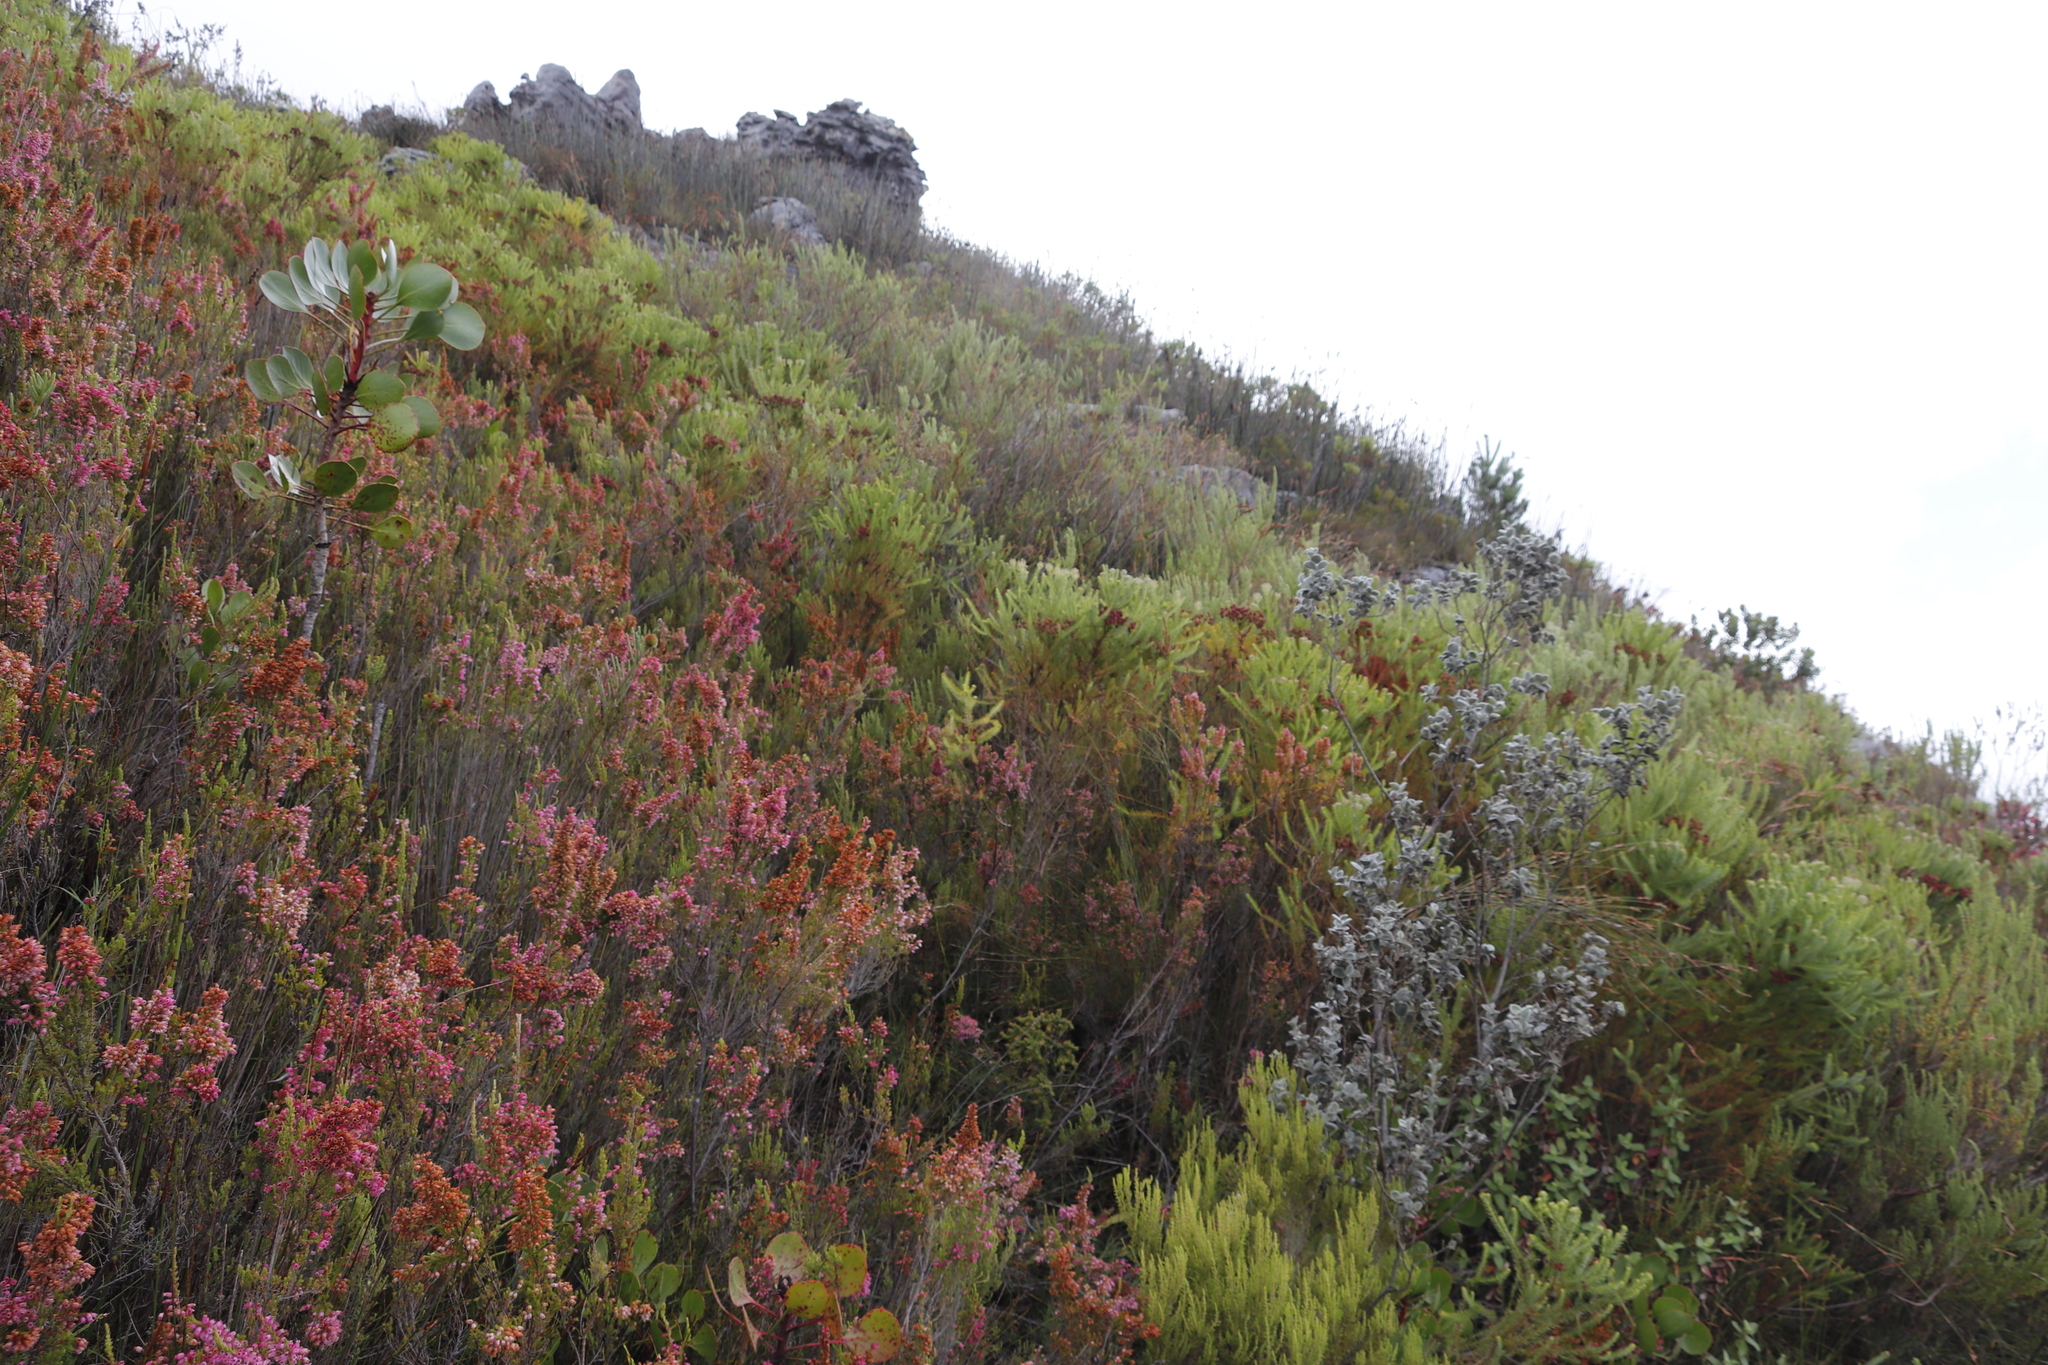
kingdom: Plantae
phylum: Tracheophyta
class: Magnoliopsida
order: Proteales
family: Proteaceae
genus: Protea
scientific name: Protea cynaroides
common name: King protea
